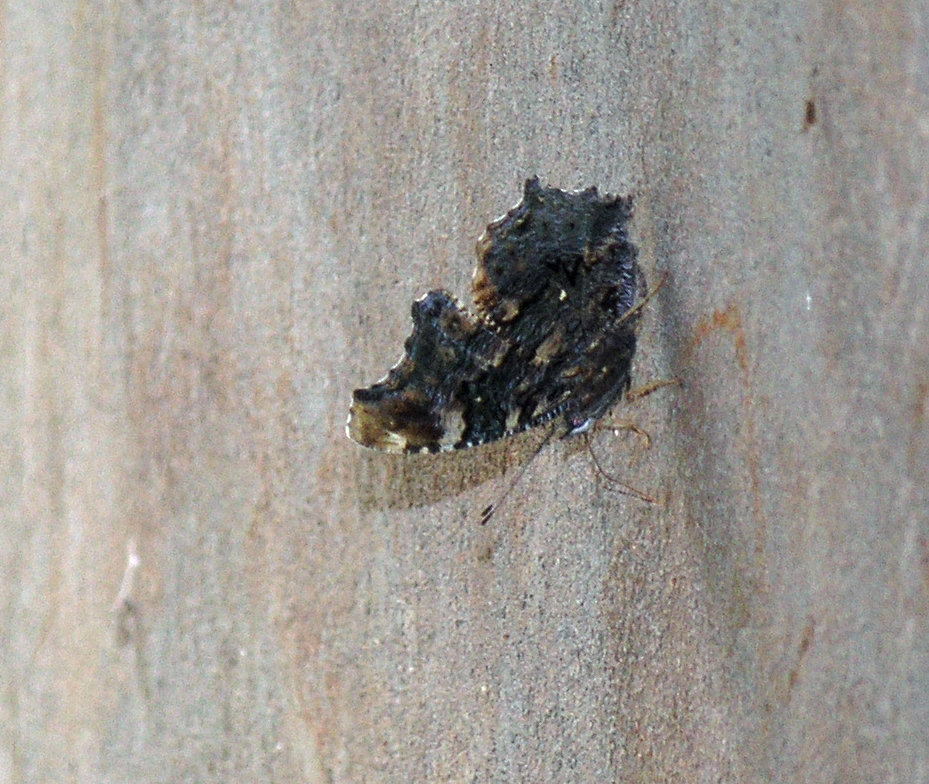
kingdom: Animalia
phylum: Arthropoda
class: Insecta
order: Lepidoptera
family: Nymphalidae
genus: Vanessa
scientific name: Vanessa Kaniska canace
